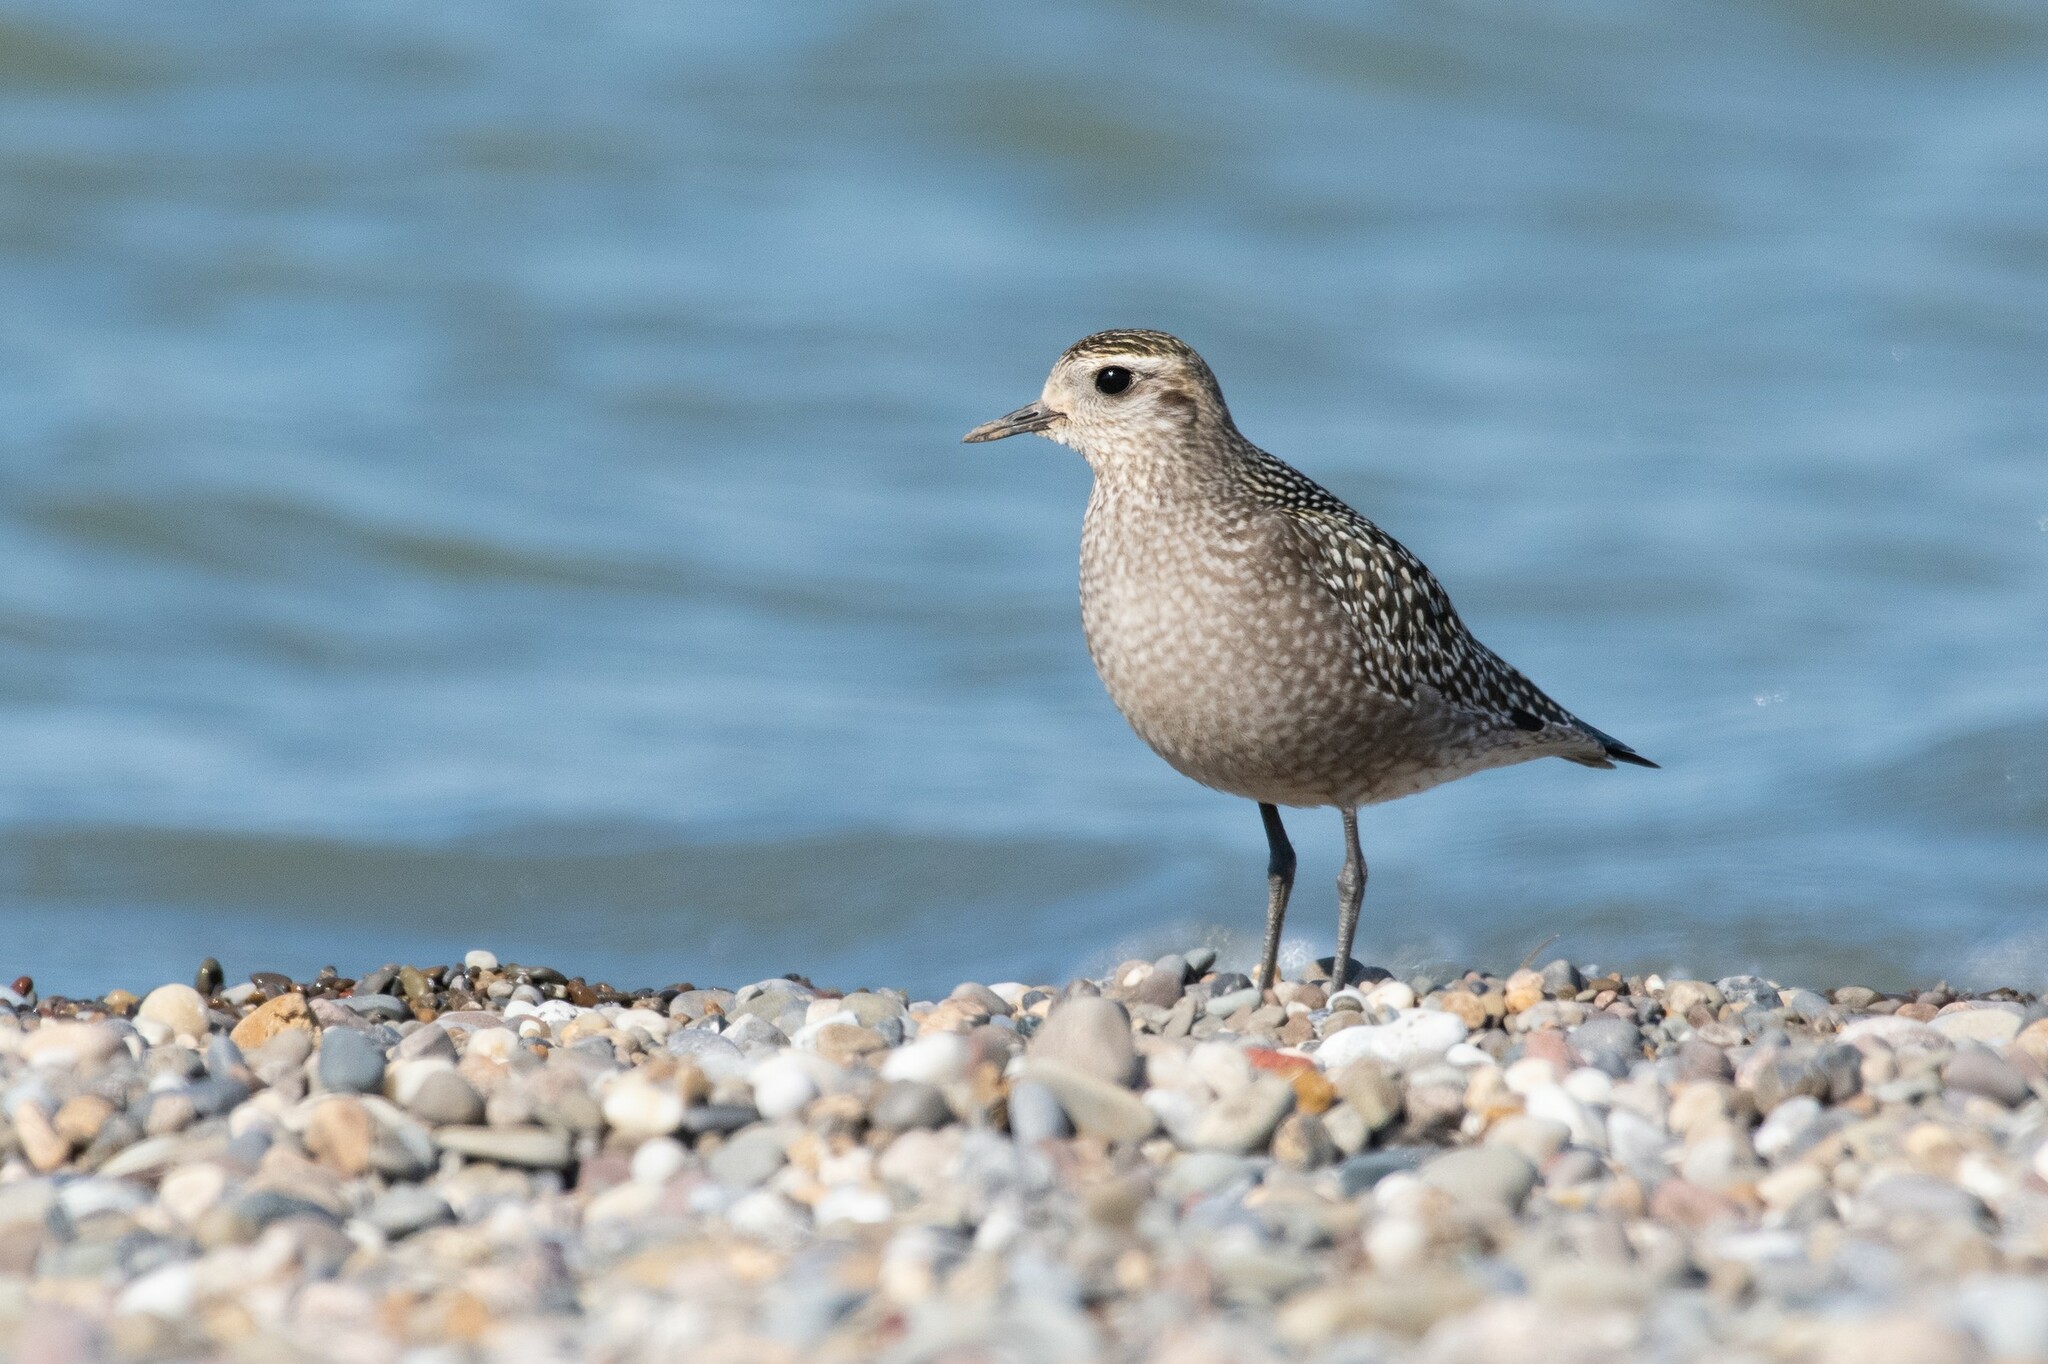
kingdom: Animalia
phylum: Chordata
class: Aves
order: Charadriiformes
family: Charadriidae
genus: Pluvialis
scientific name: Pluvialis dominica
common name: American golden plover
